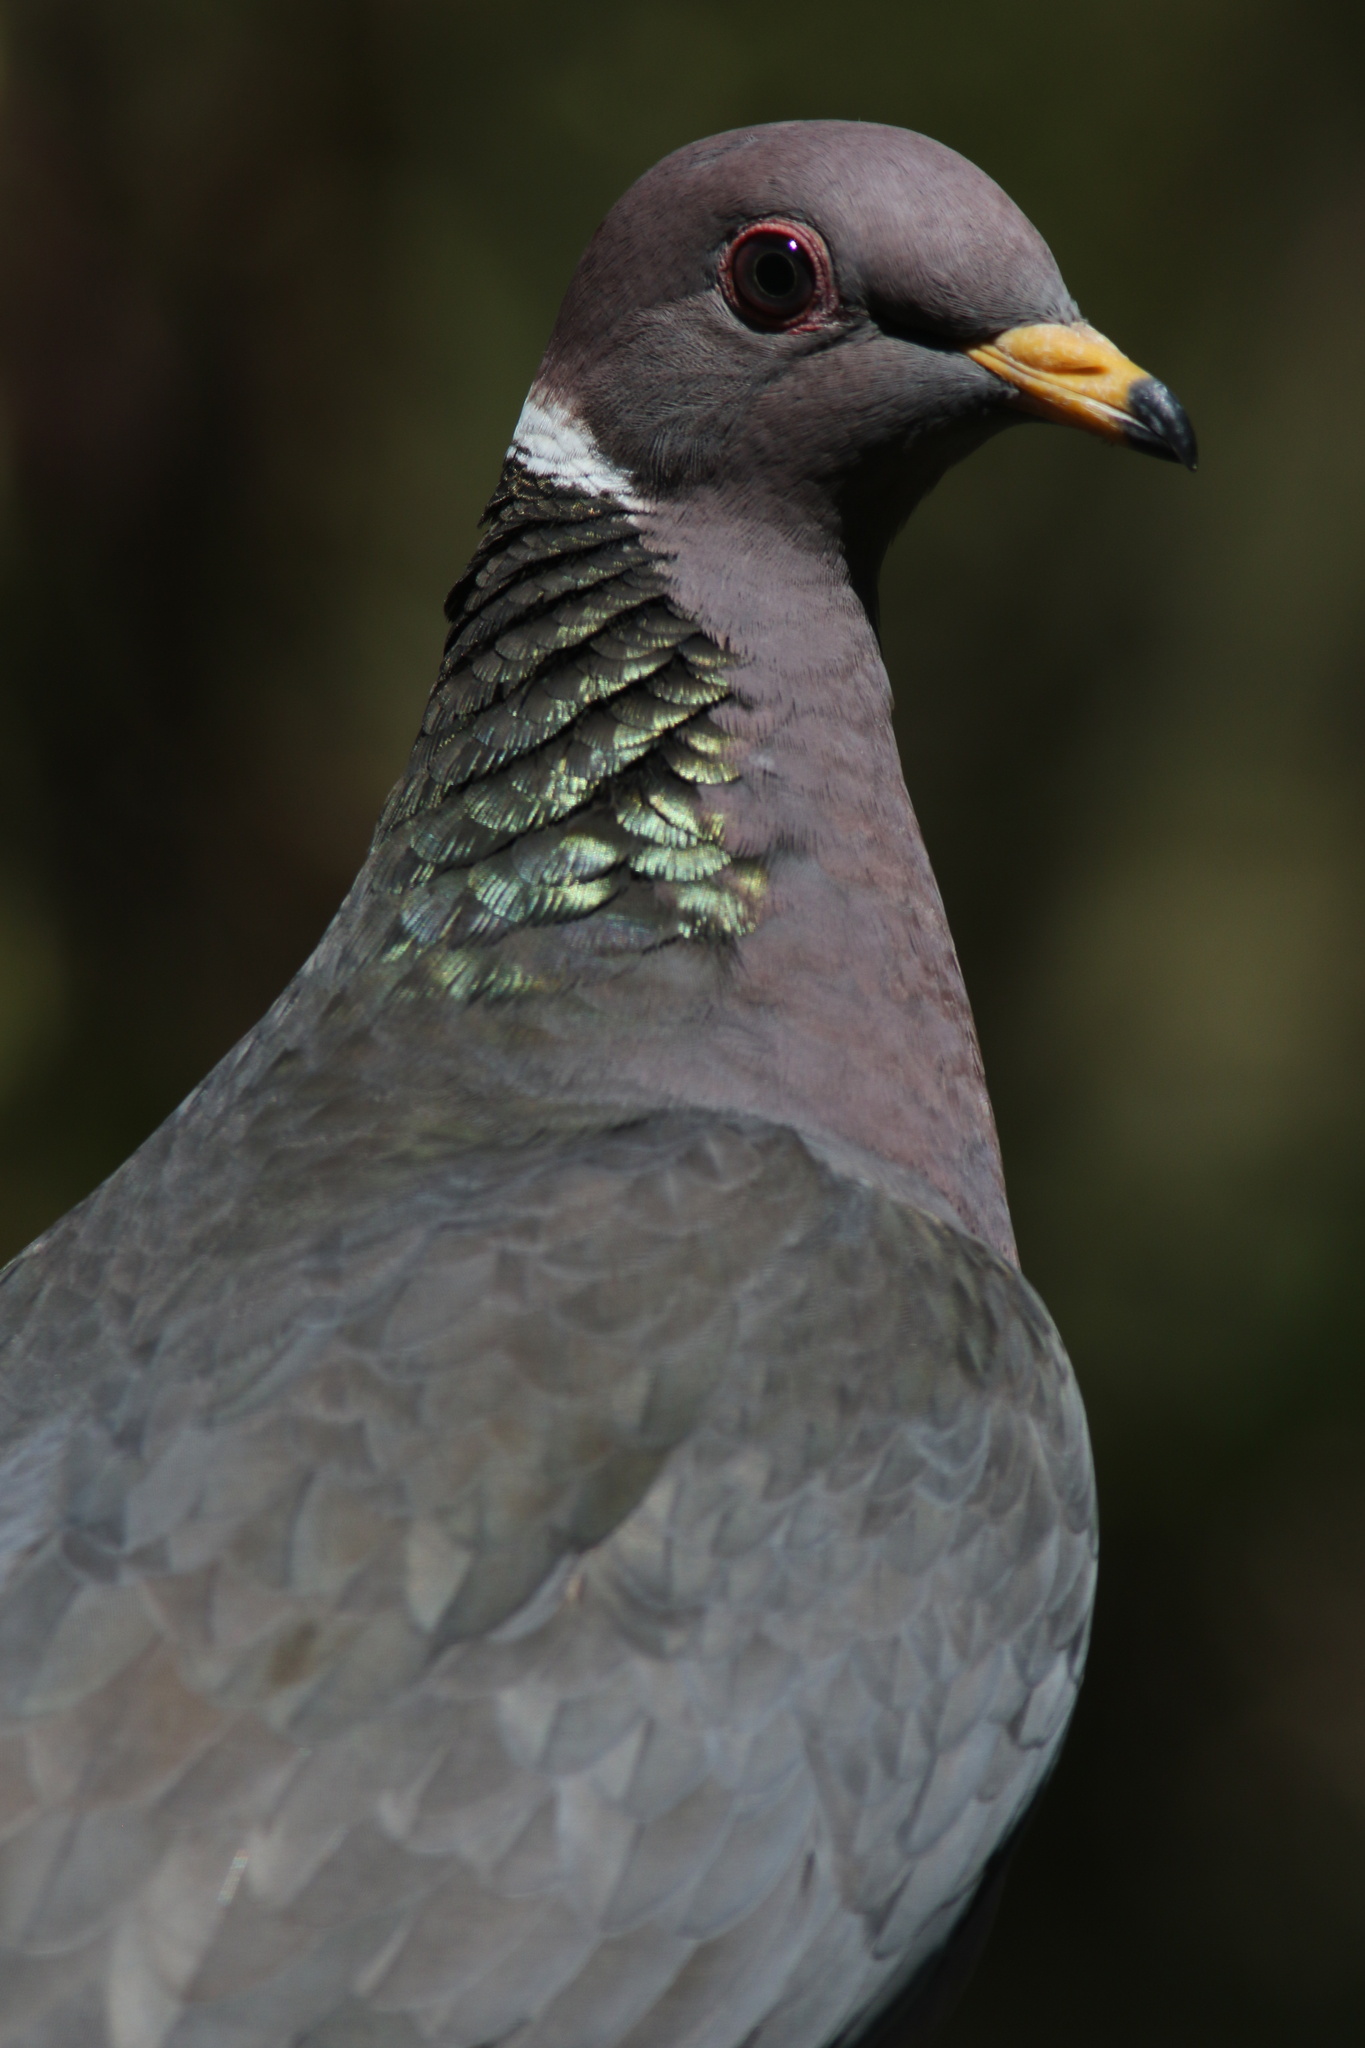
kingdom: Animalia
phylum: Chordata
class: Aves
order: Columbiformes
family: Columbidae
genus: Patagioenas
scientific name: Patagioenas fasciata
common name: Band-tailed pigeon
